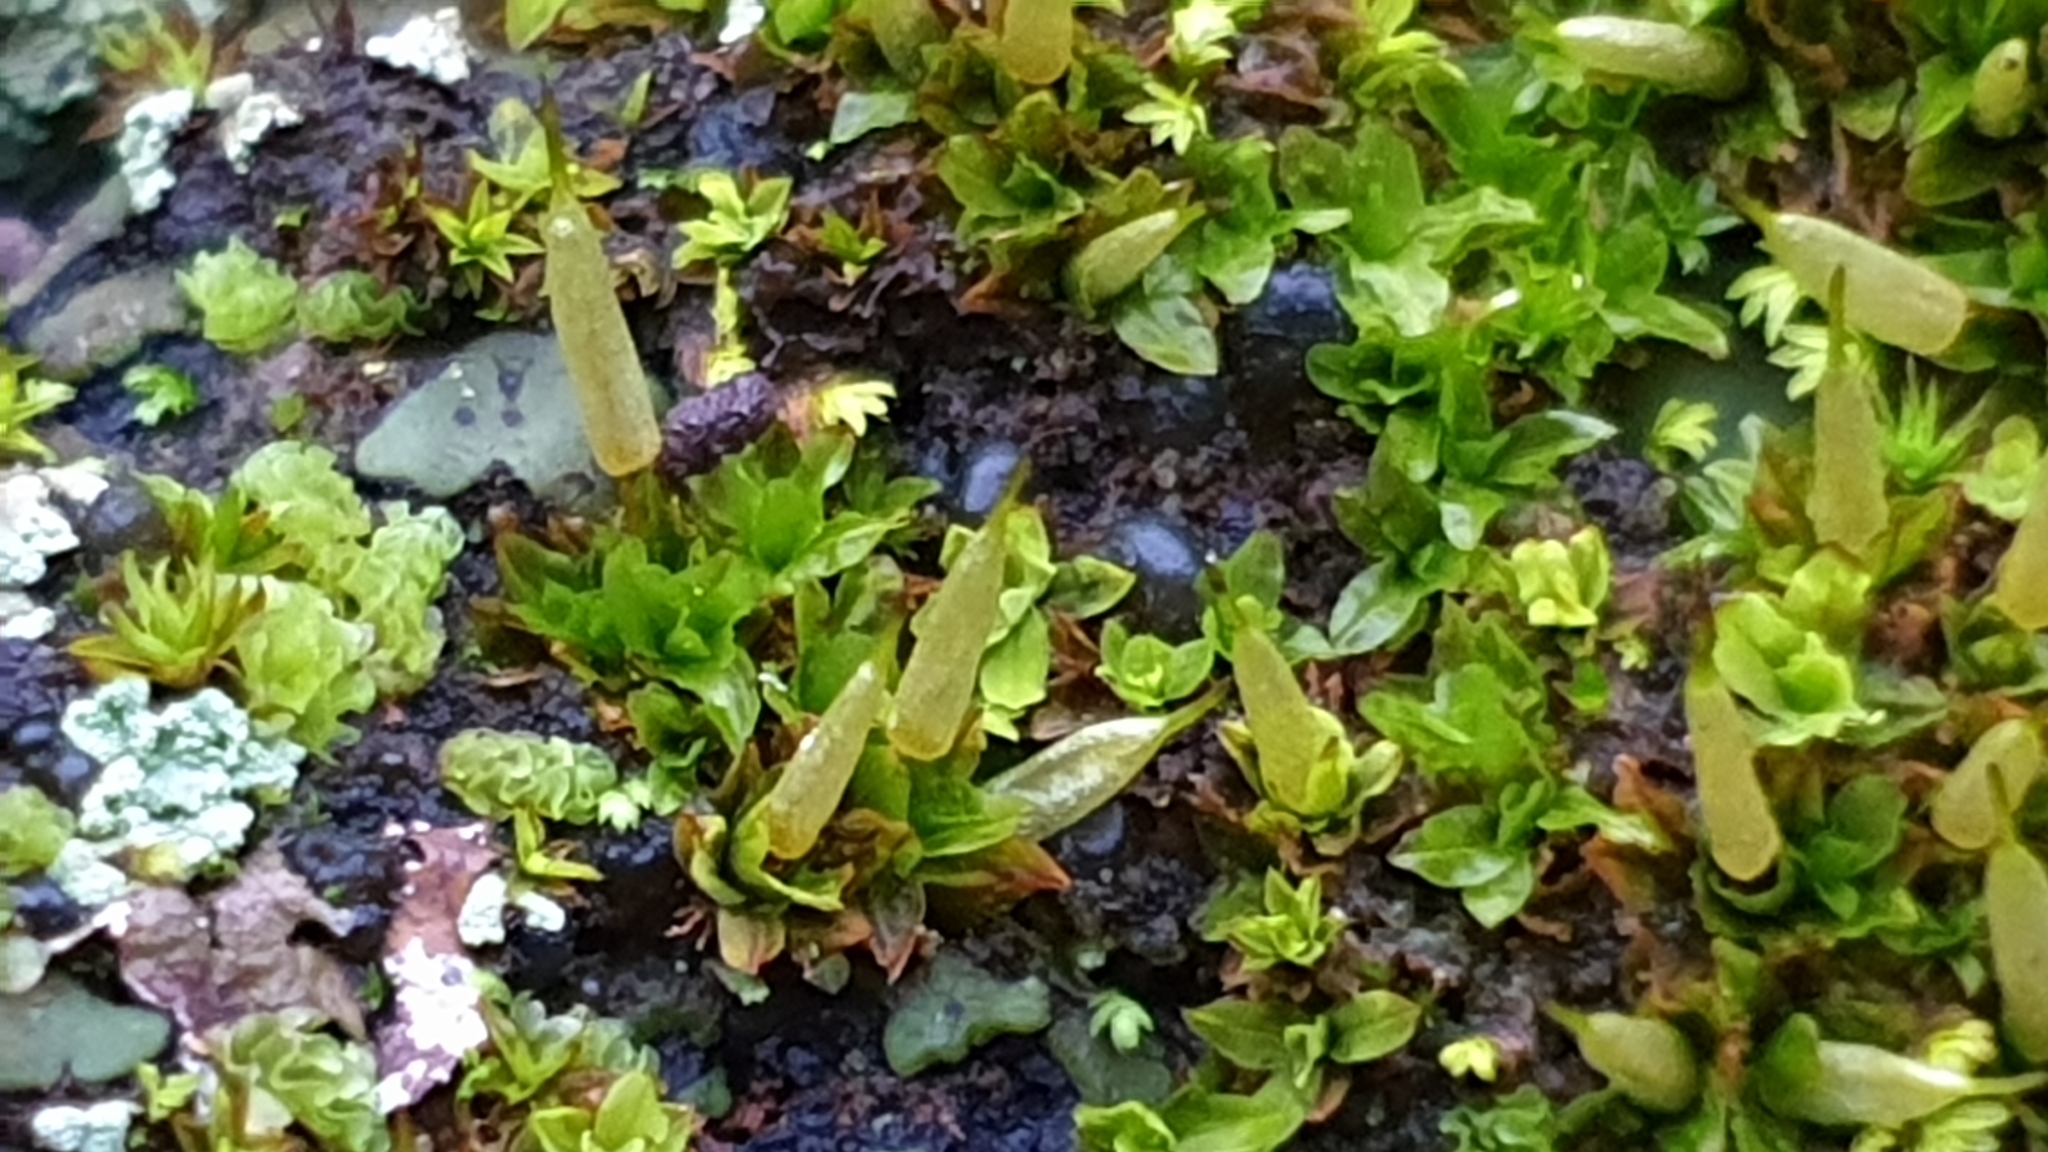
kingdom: Plantae
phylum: Bryophyta
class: Bryopsida
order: Encalyptales
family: Encalyptaceae
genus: Encalypta
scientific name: Encalypta vulgaris
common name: Common extinguisher-moss
